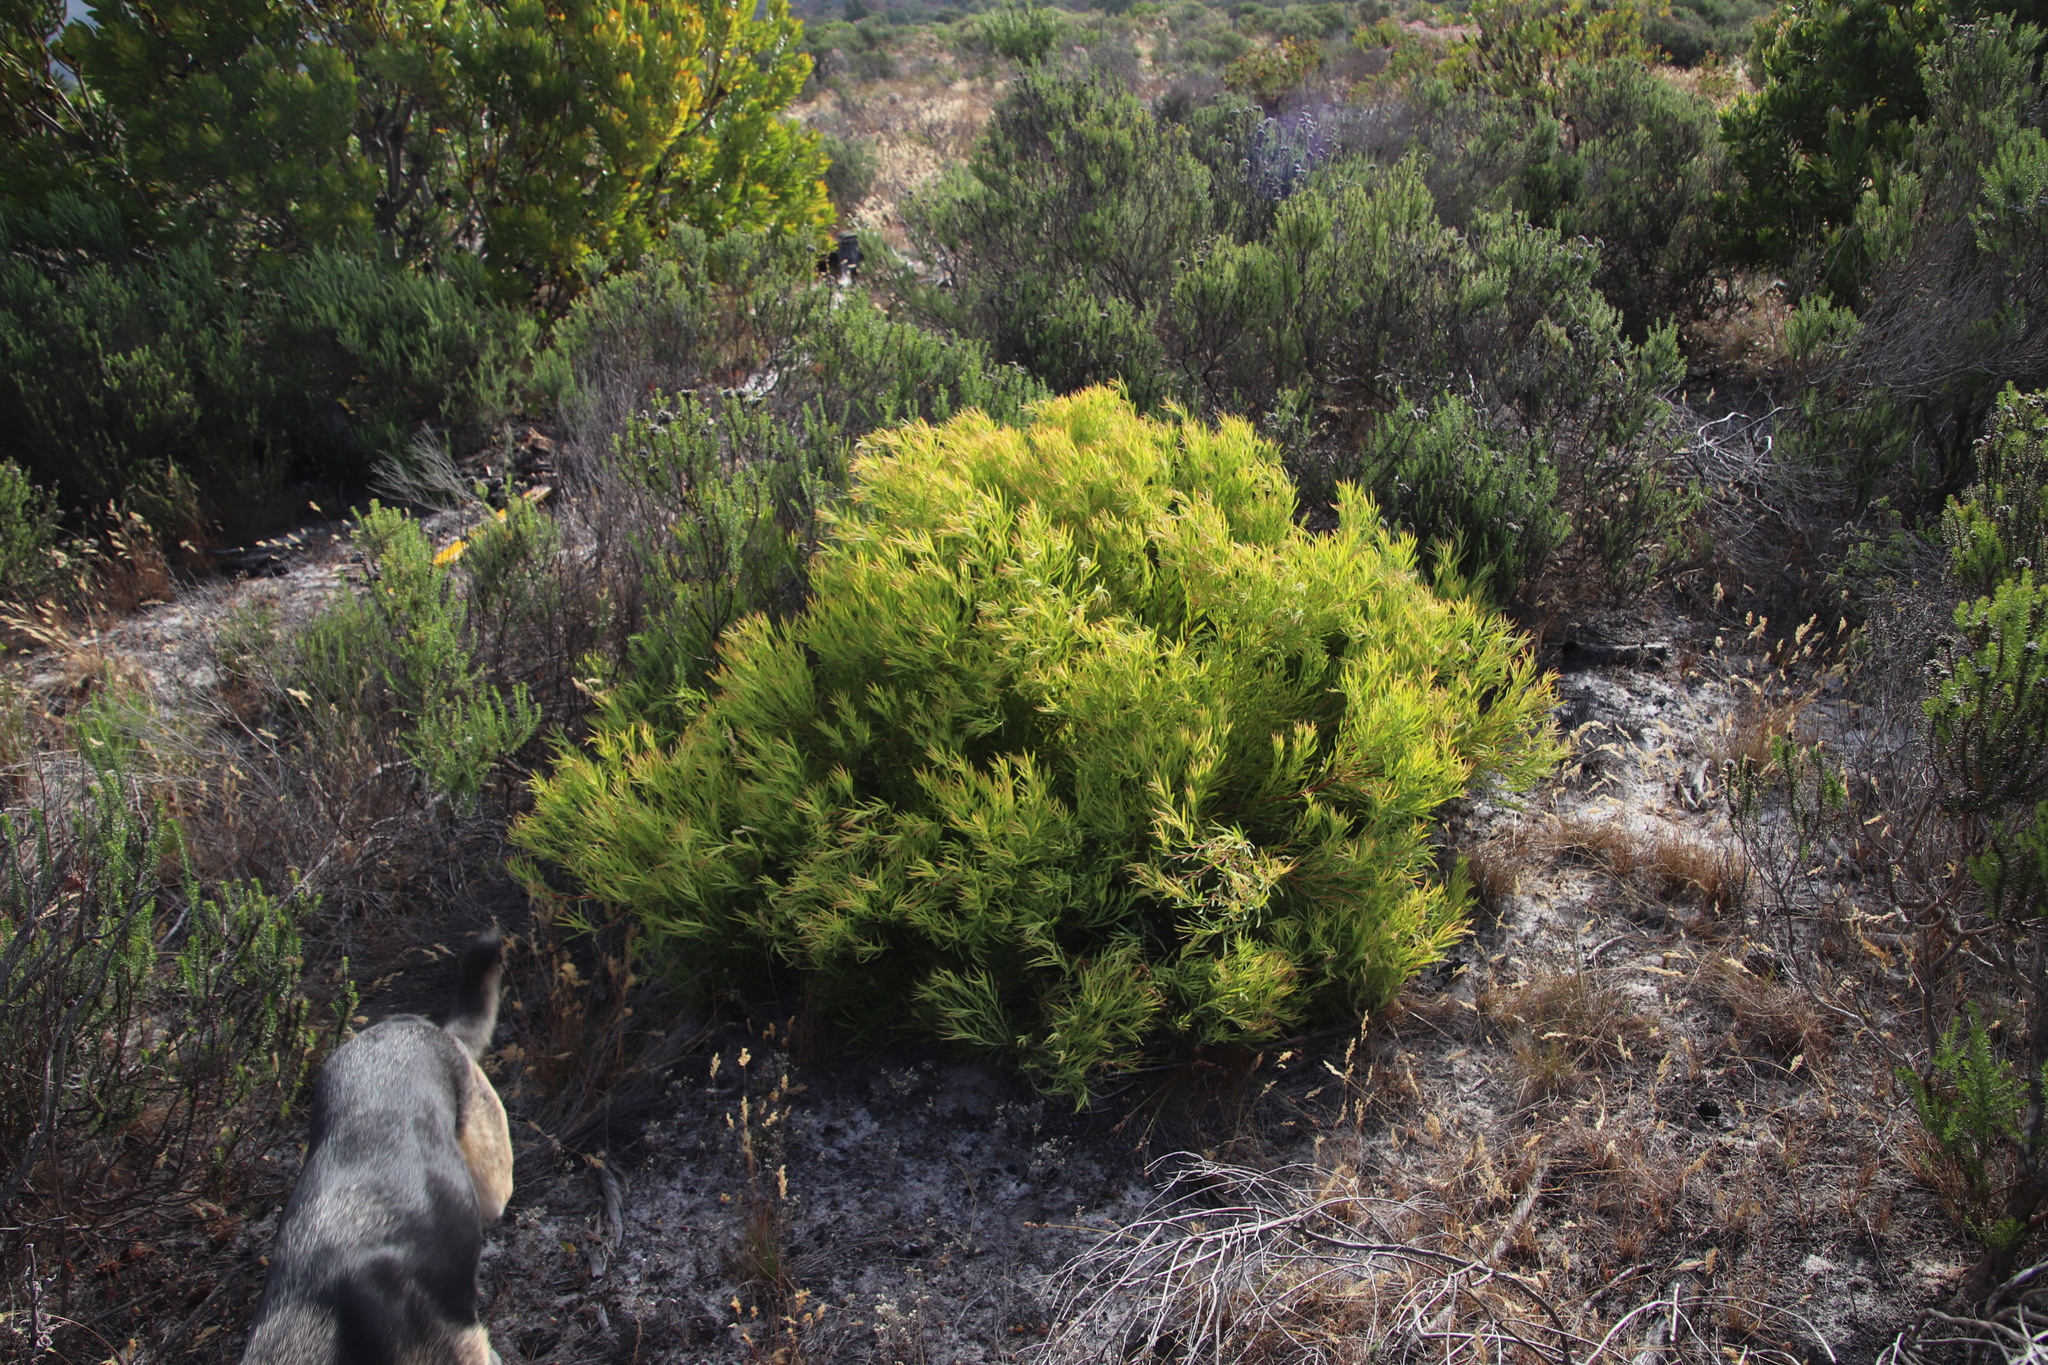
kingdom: Plantae
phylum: Tracheophyta
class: Magnoliopsida
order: Proteales
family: Proteaceae
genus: Leucadendron
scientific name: Leucadendron salignum
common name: Common sunshine conebush
